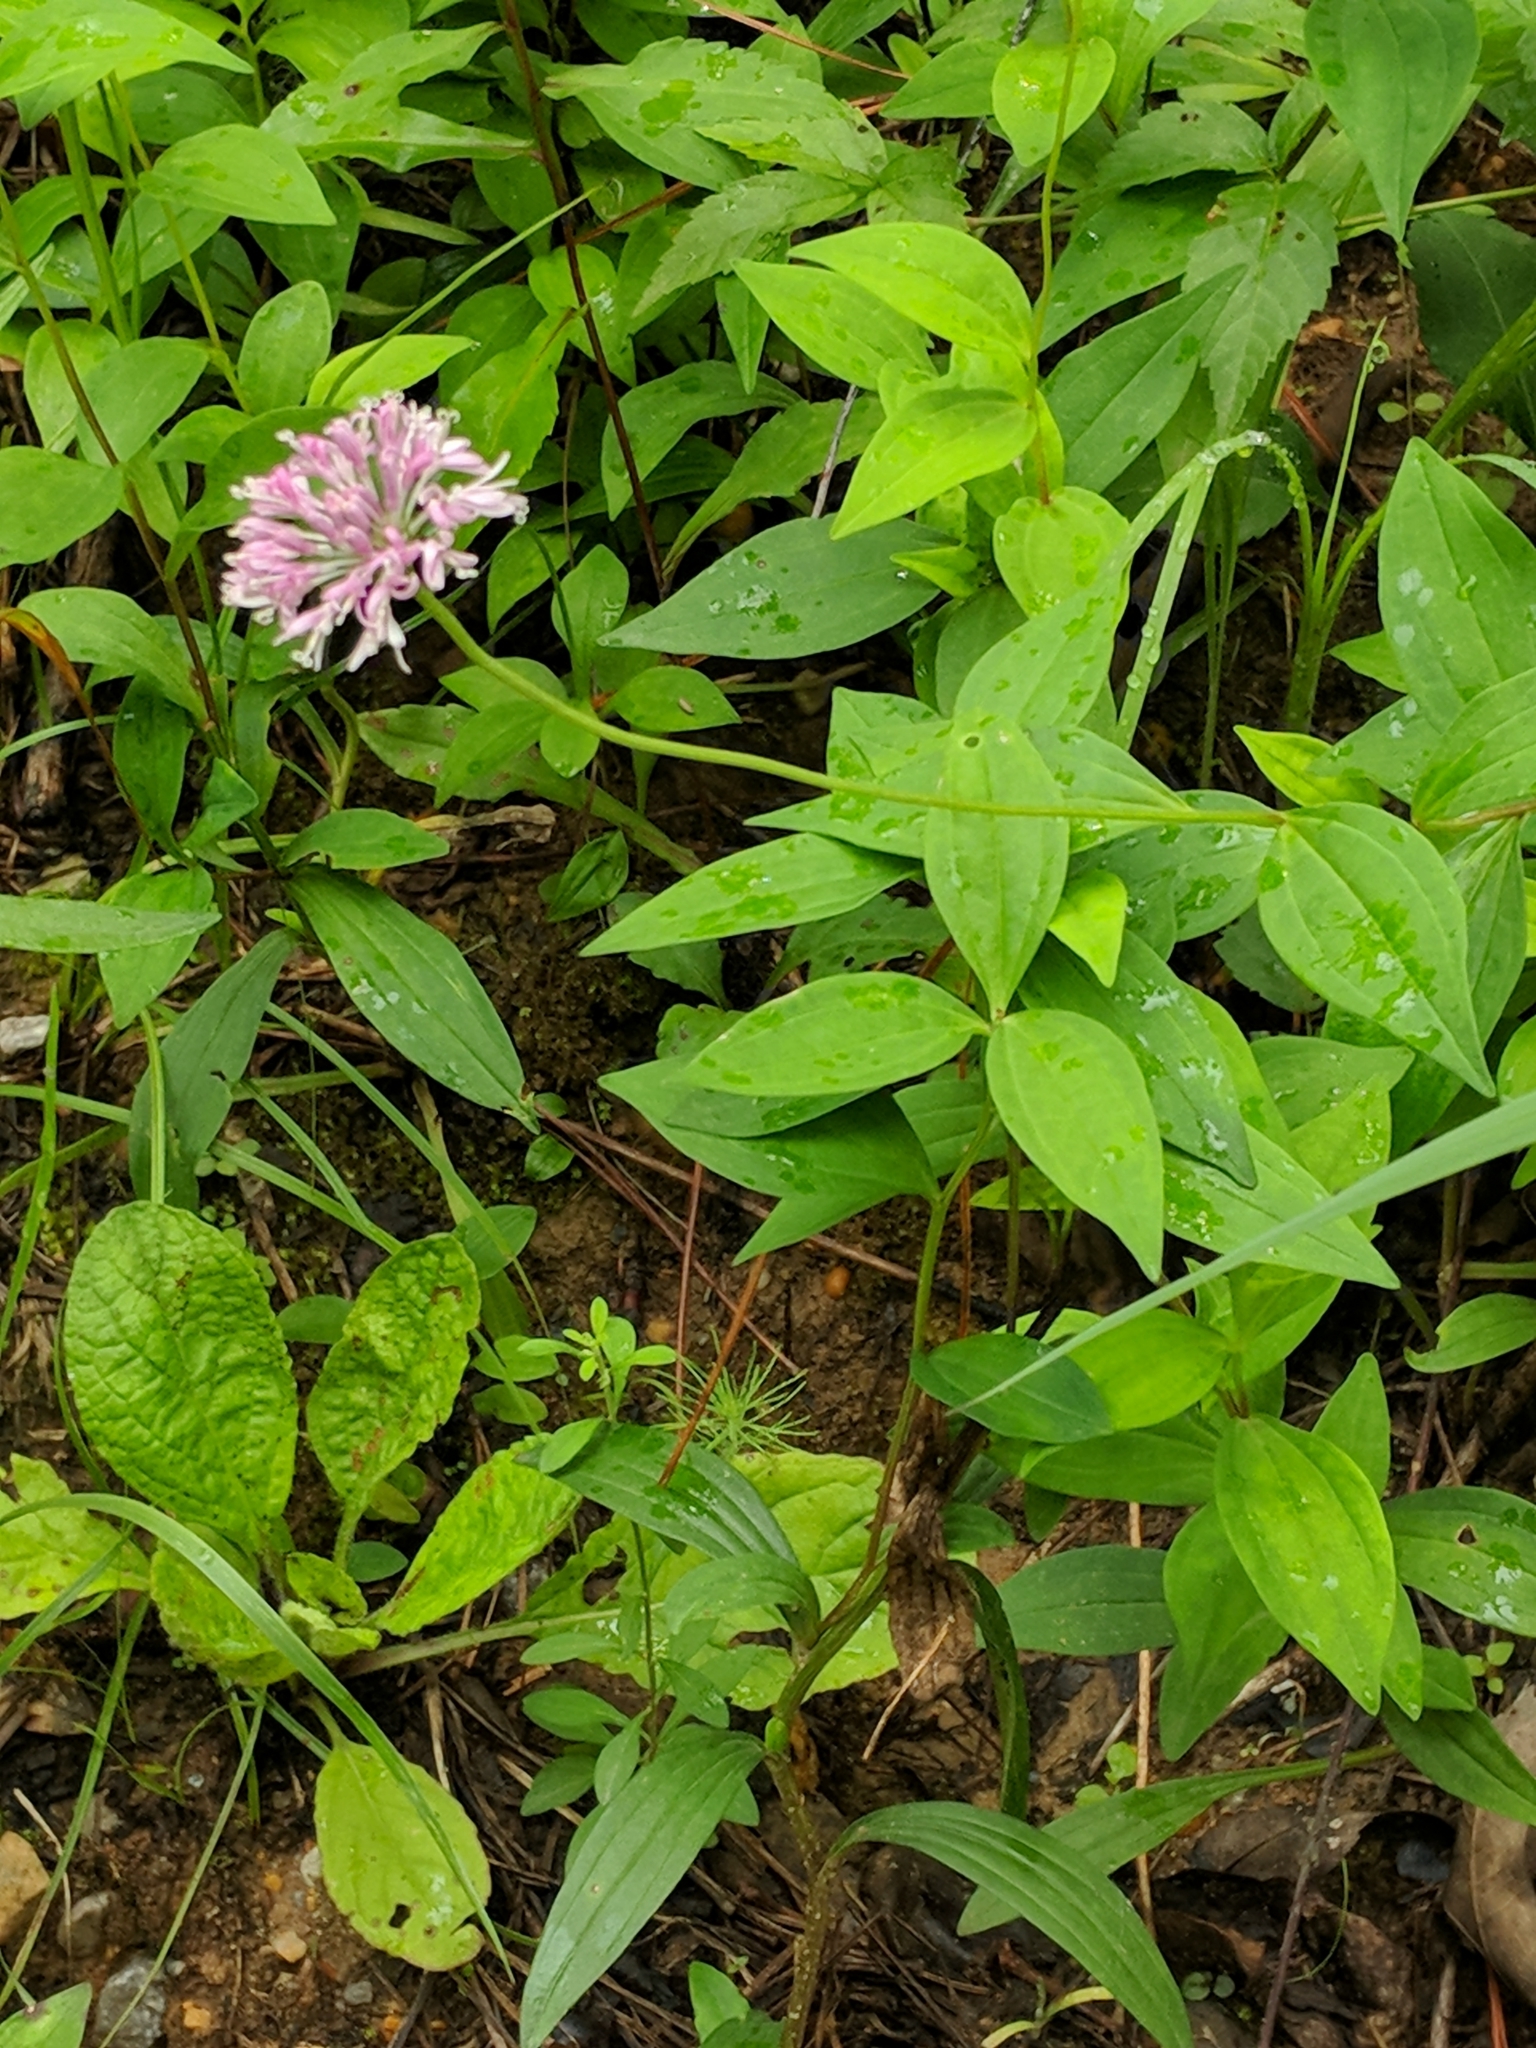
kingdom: Plantae
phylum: Tracheophyta
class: Magnoliopsida
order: Lamiales
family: Lamiaceae
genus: Monarda
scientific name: Monarda fistulosa
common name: Purple beebalm
